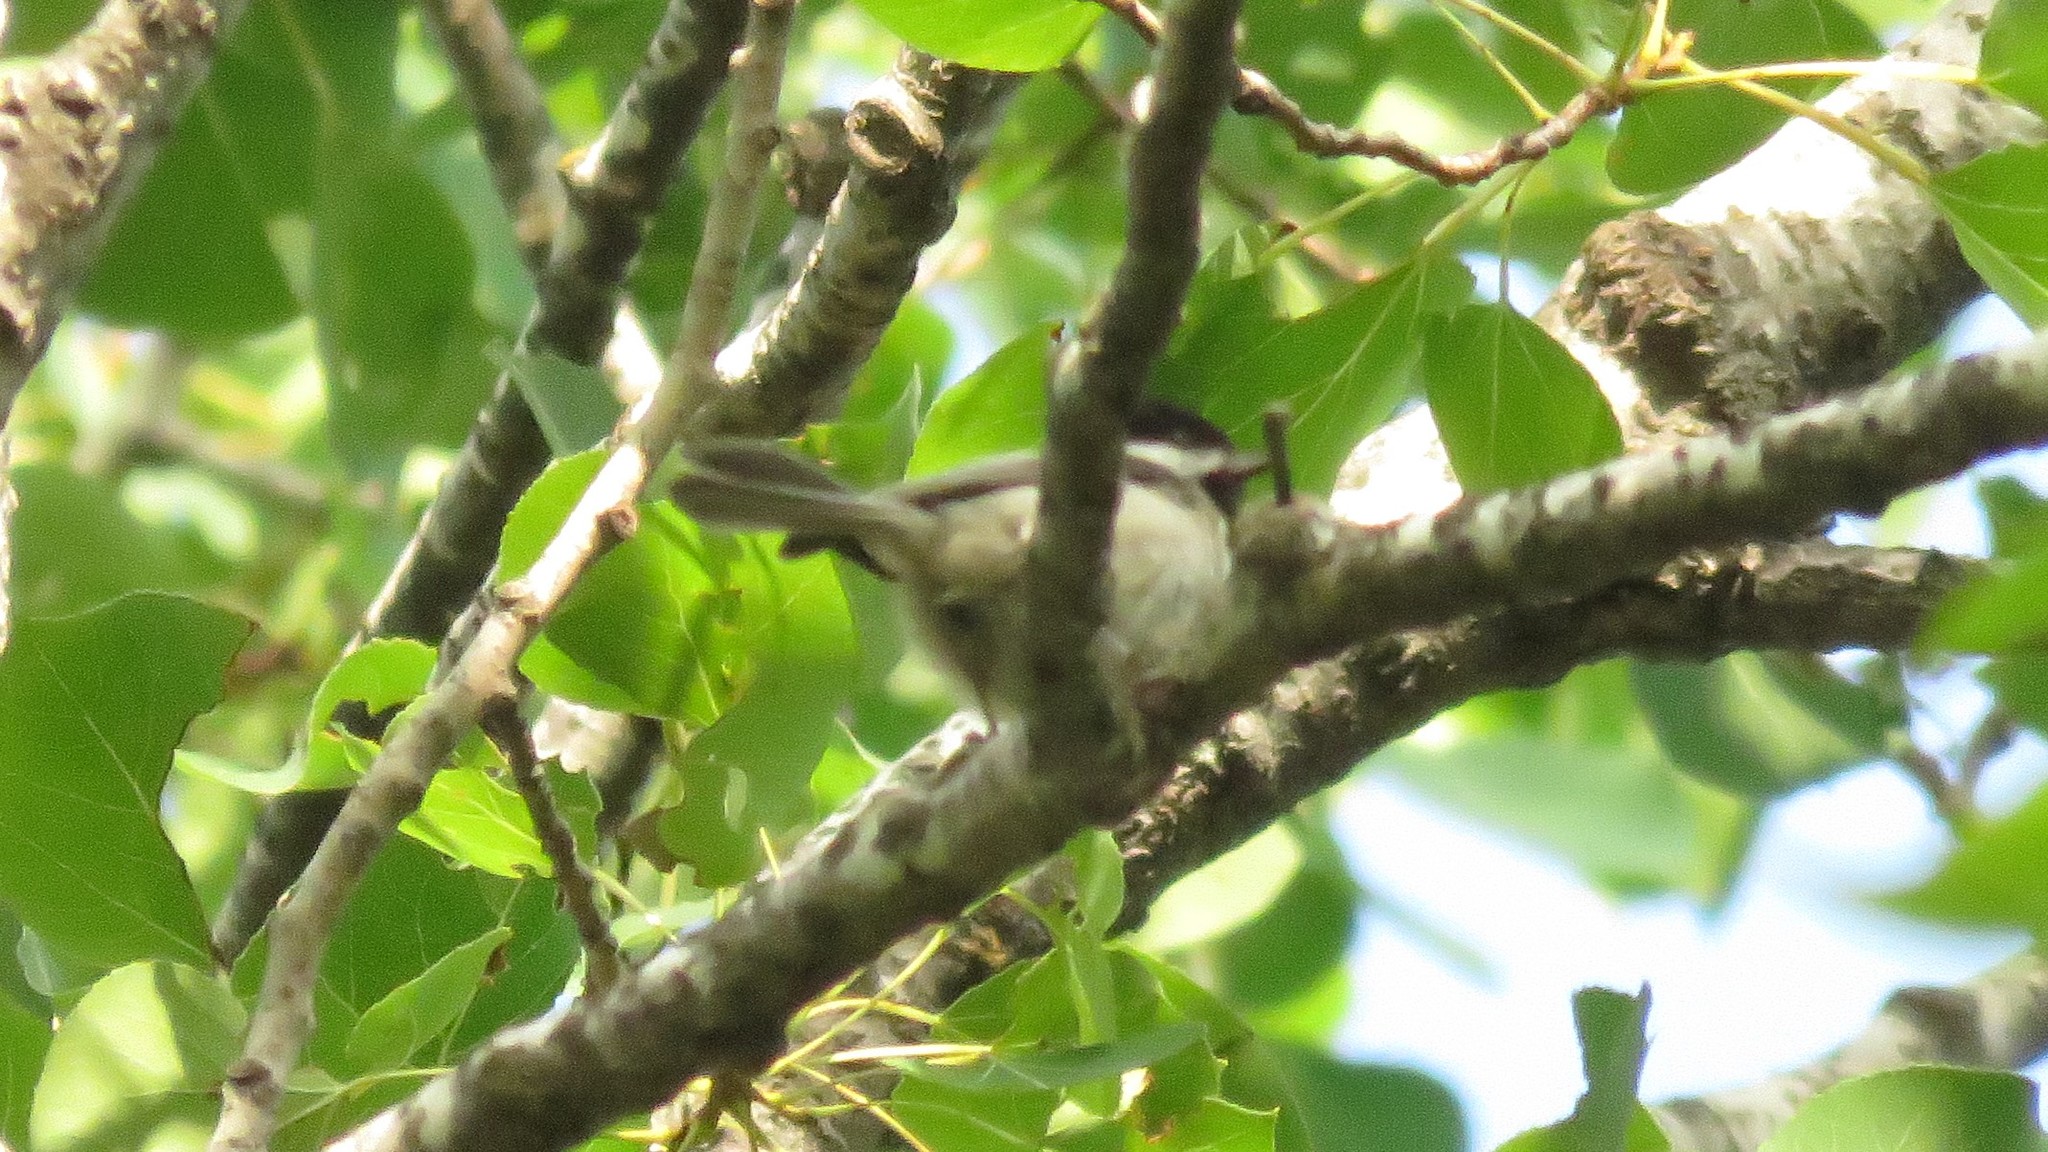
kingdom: Animalia
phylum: Chordata
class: Aves
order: Passeriformes
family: Paridae
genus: Poecile
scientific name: Poecile atricapillus
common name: Black-capped chickadee
